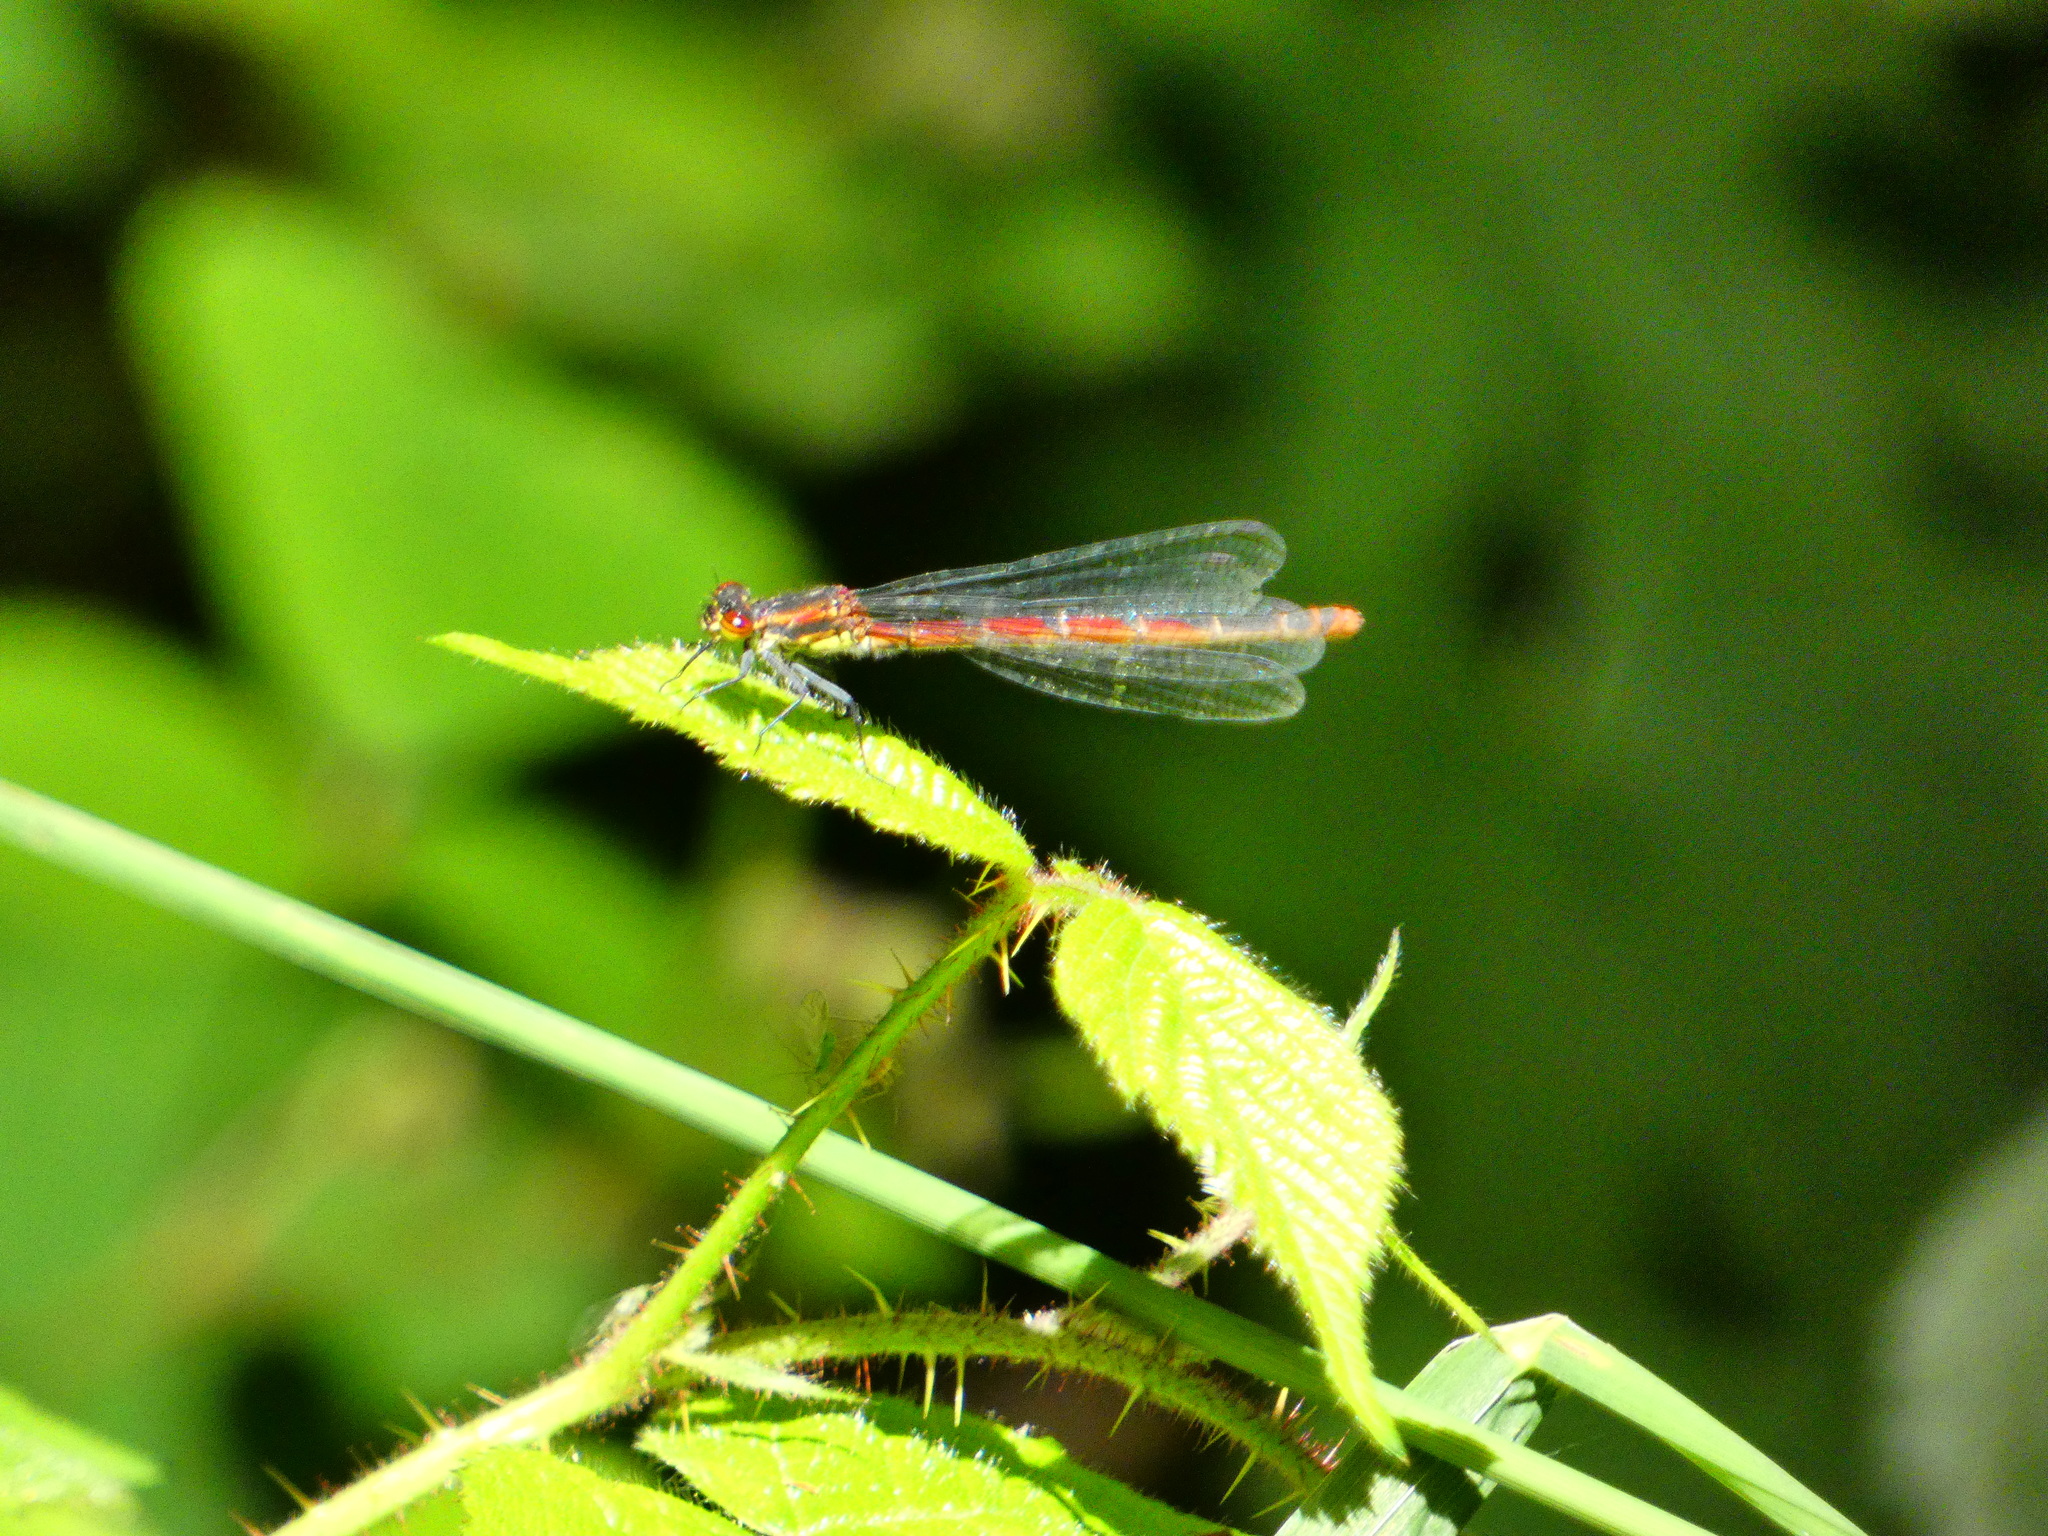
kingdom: Animalia
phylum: Arthropoda
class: Insecta
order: Odonata
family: Coenagrionidae
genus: Pyrrhosoma
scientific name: Pyrrhosoma nymphula
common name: Large red damsel
